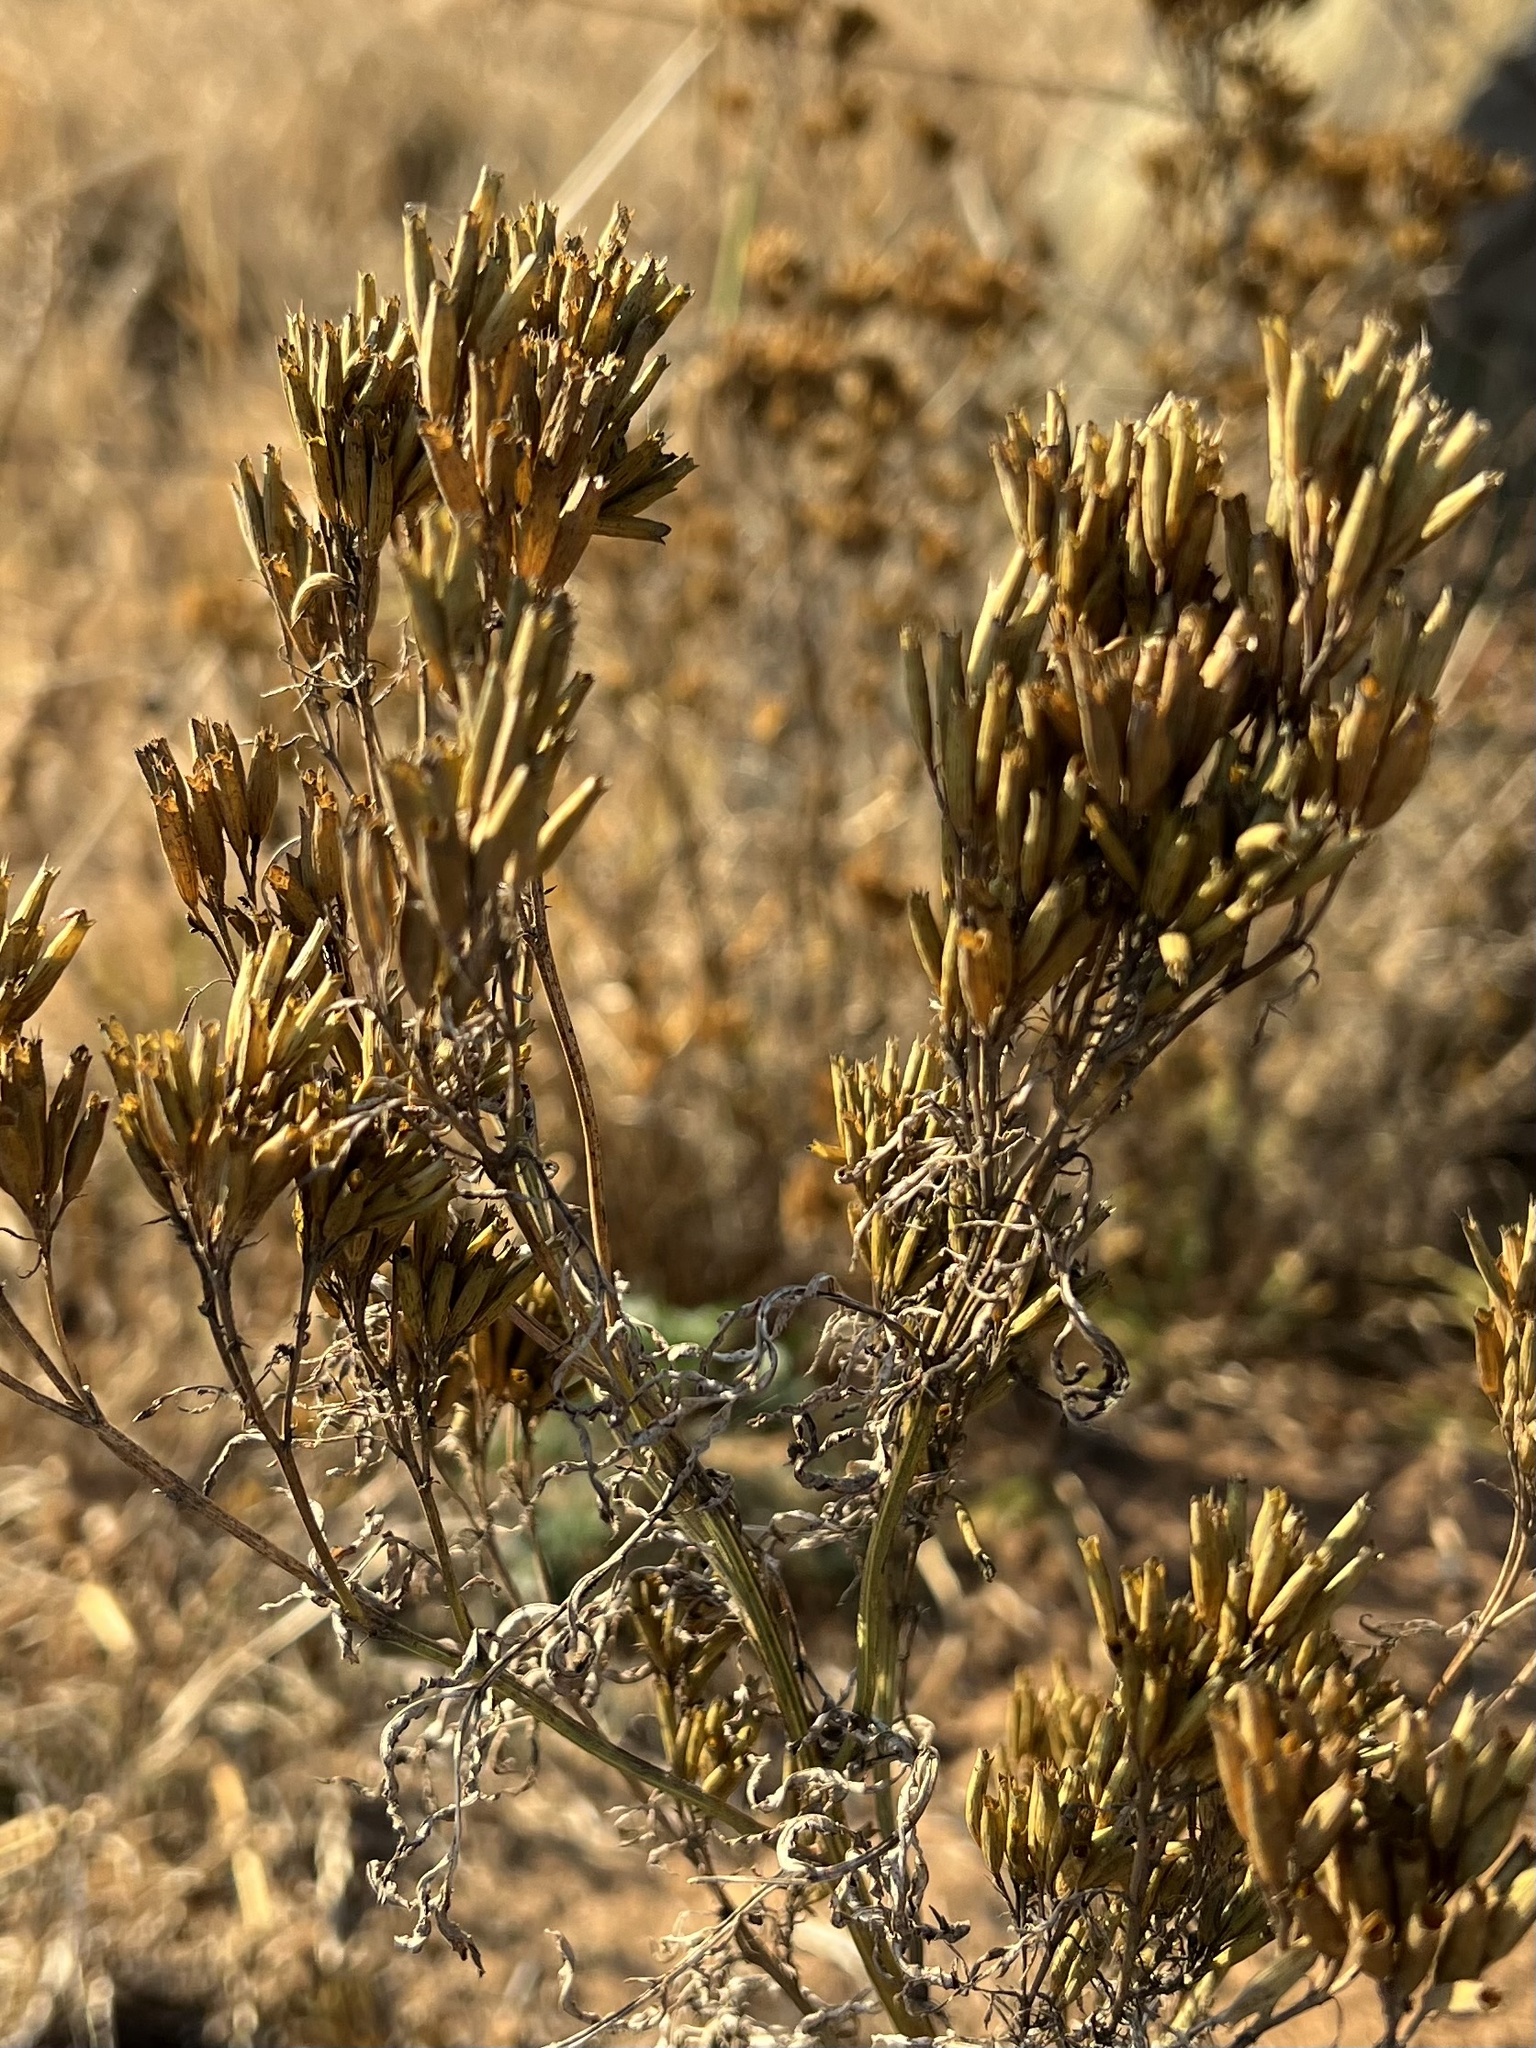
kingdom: Plantae
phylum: Tracheophyta
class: Magnoliopsida
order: Asterales
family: Asteraceae
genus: Tagetes
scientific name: Tagetes minuta
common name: Muster john henry
